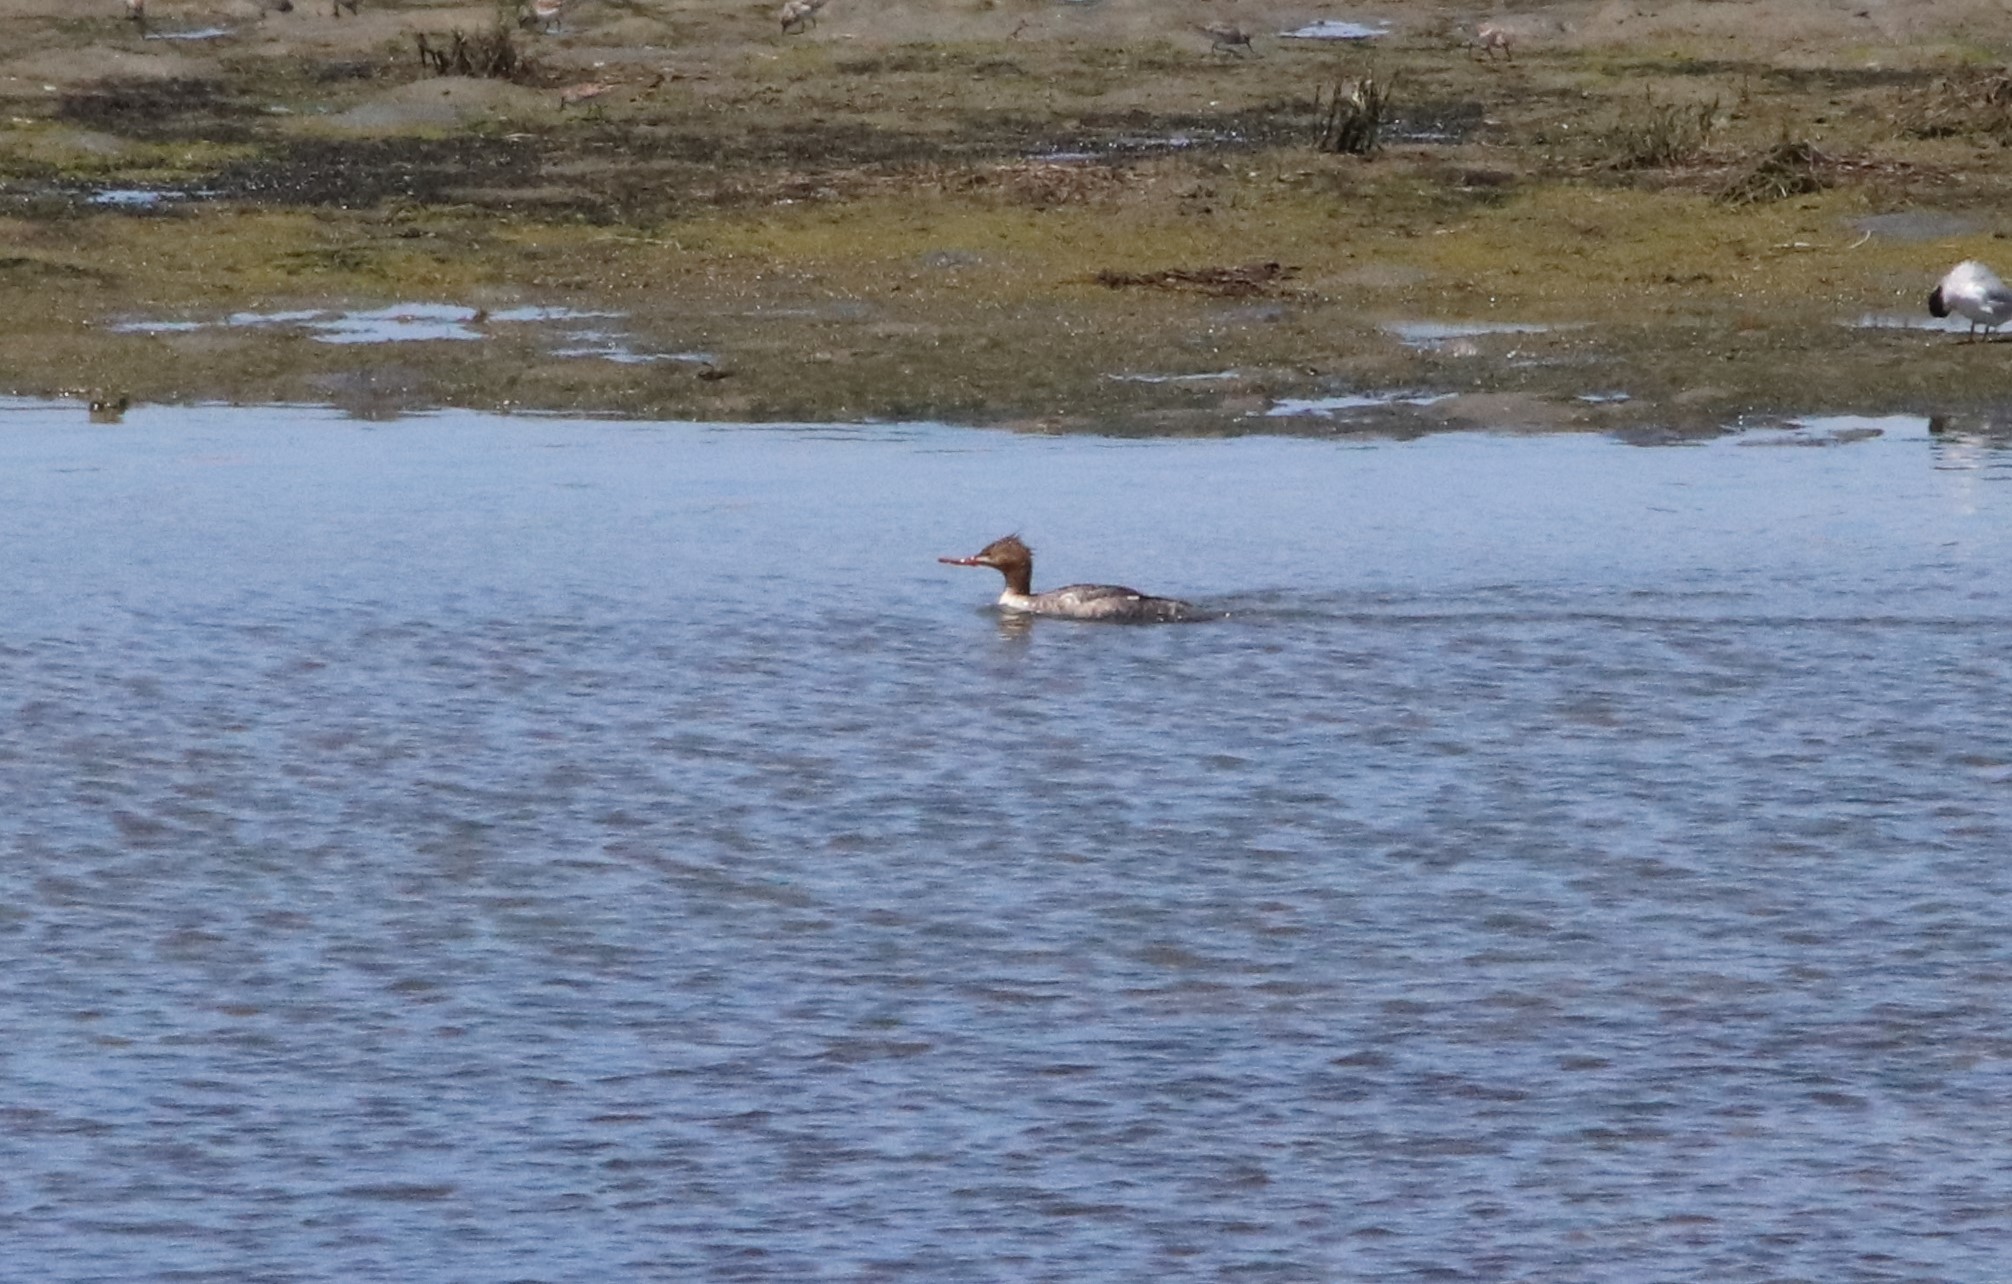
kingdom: Animalia
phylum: Chordata
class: Aves
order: Anseriformes
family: Anatidae
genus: Mergus
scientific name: Mergus serrator
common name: Red-breasted merganser
